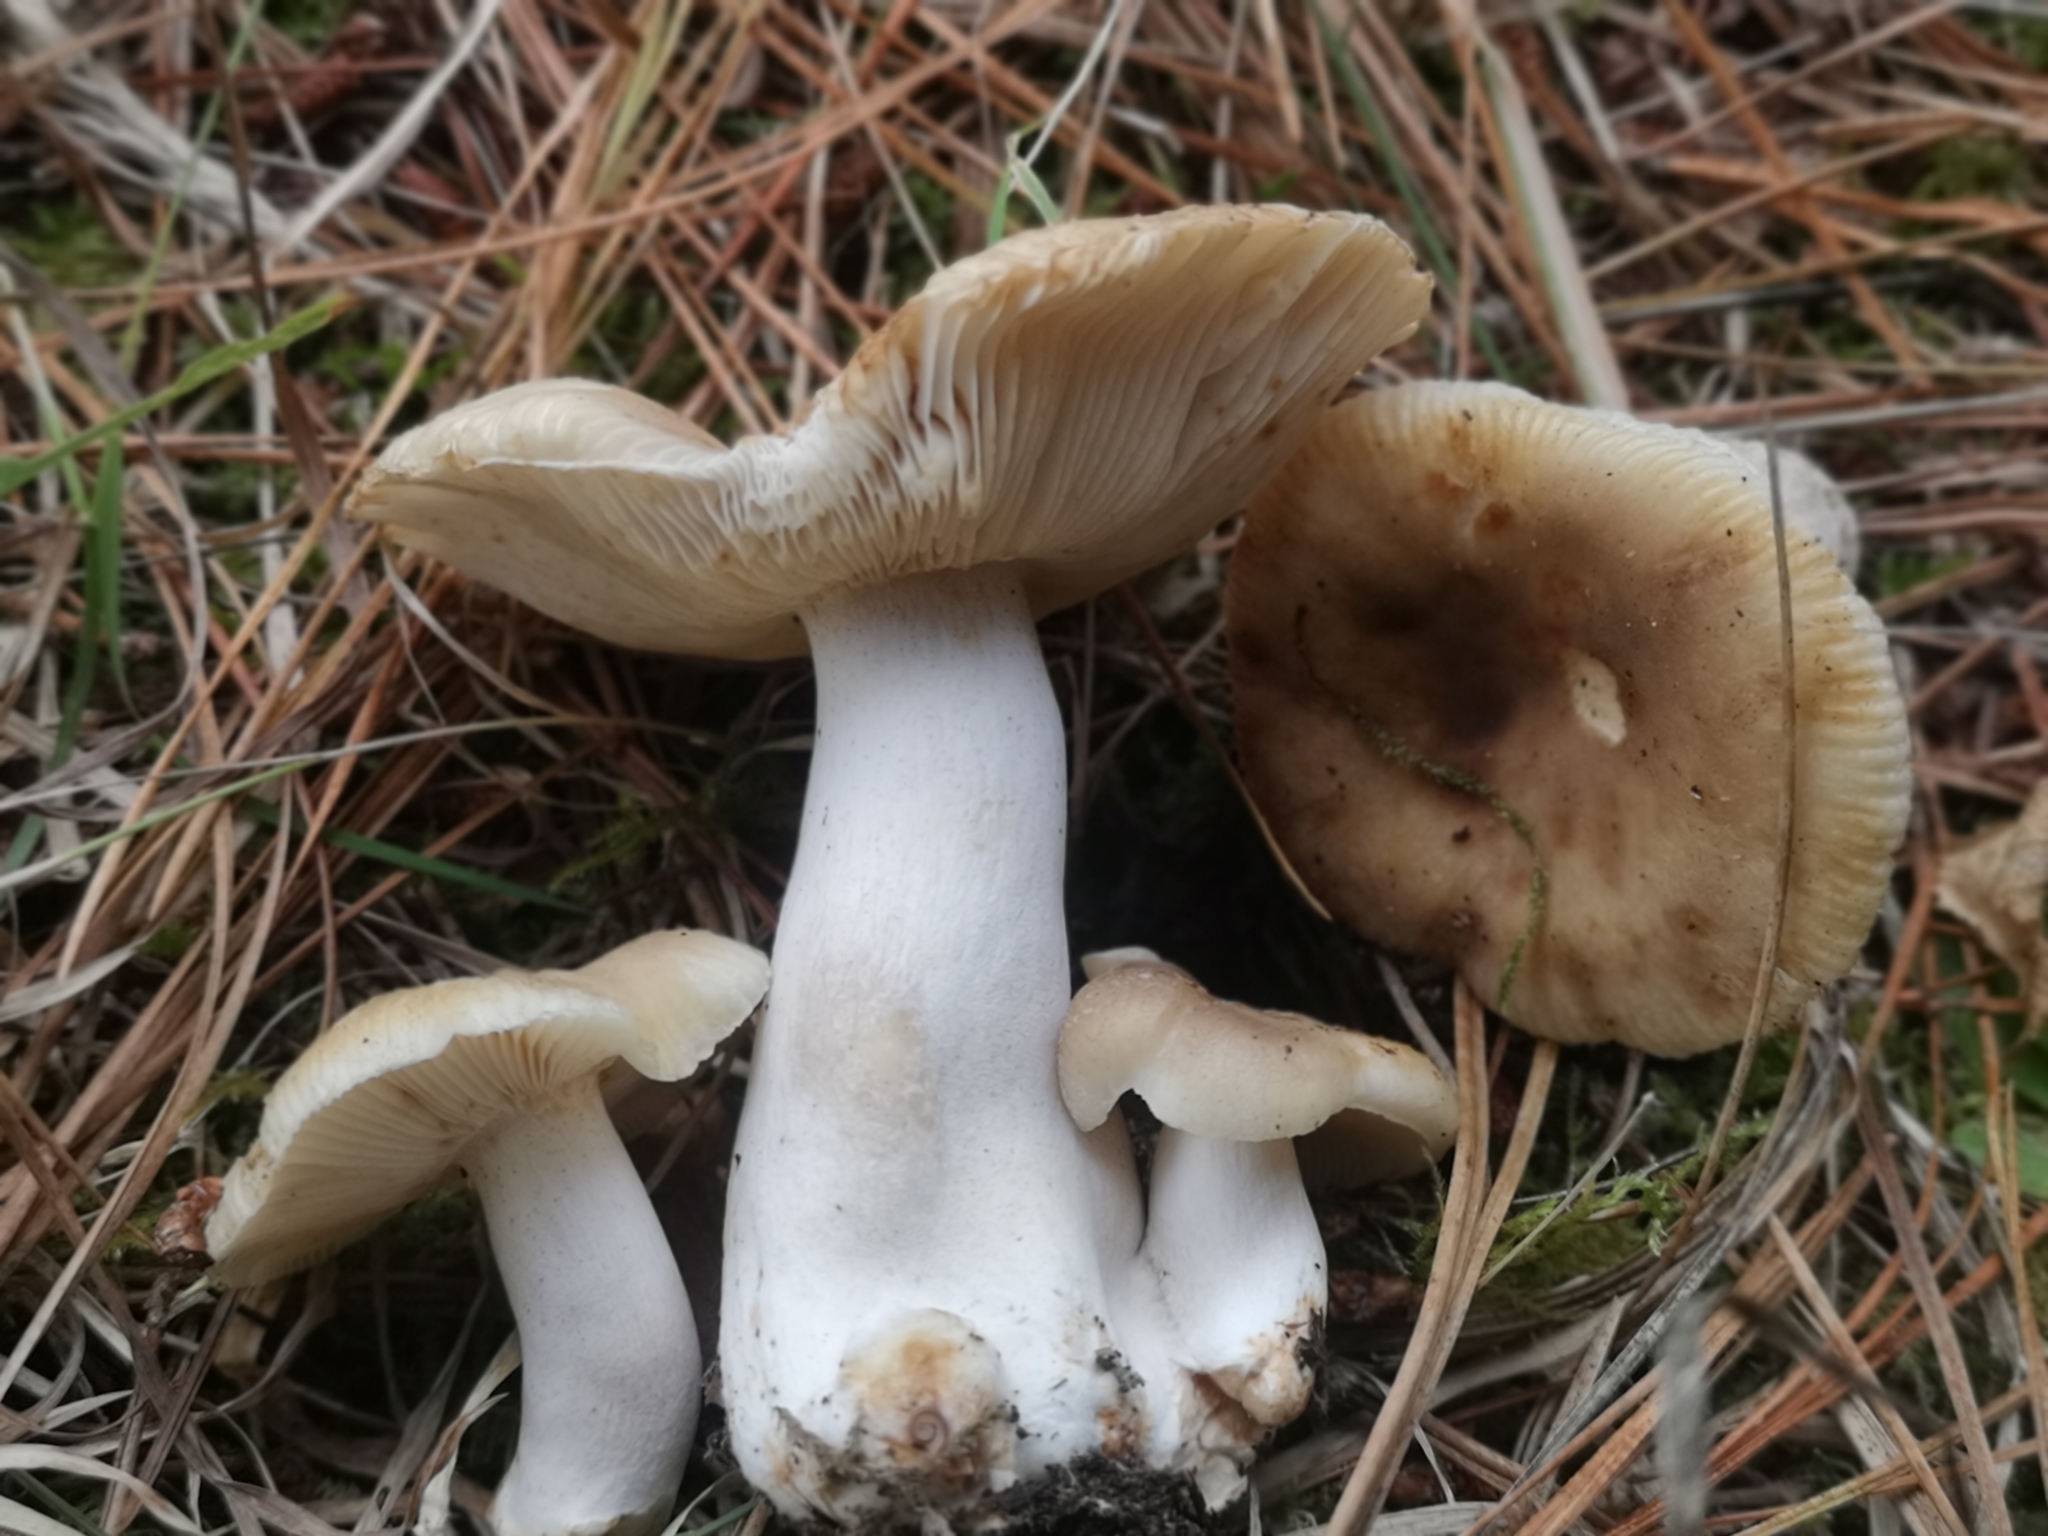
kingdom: Fungi
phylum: Basidiomycota
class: Agaricomycetes
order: Russulales
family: Russulaceae
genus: Russula
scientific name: Russula amoenolens
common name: Camembert brittlegill
